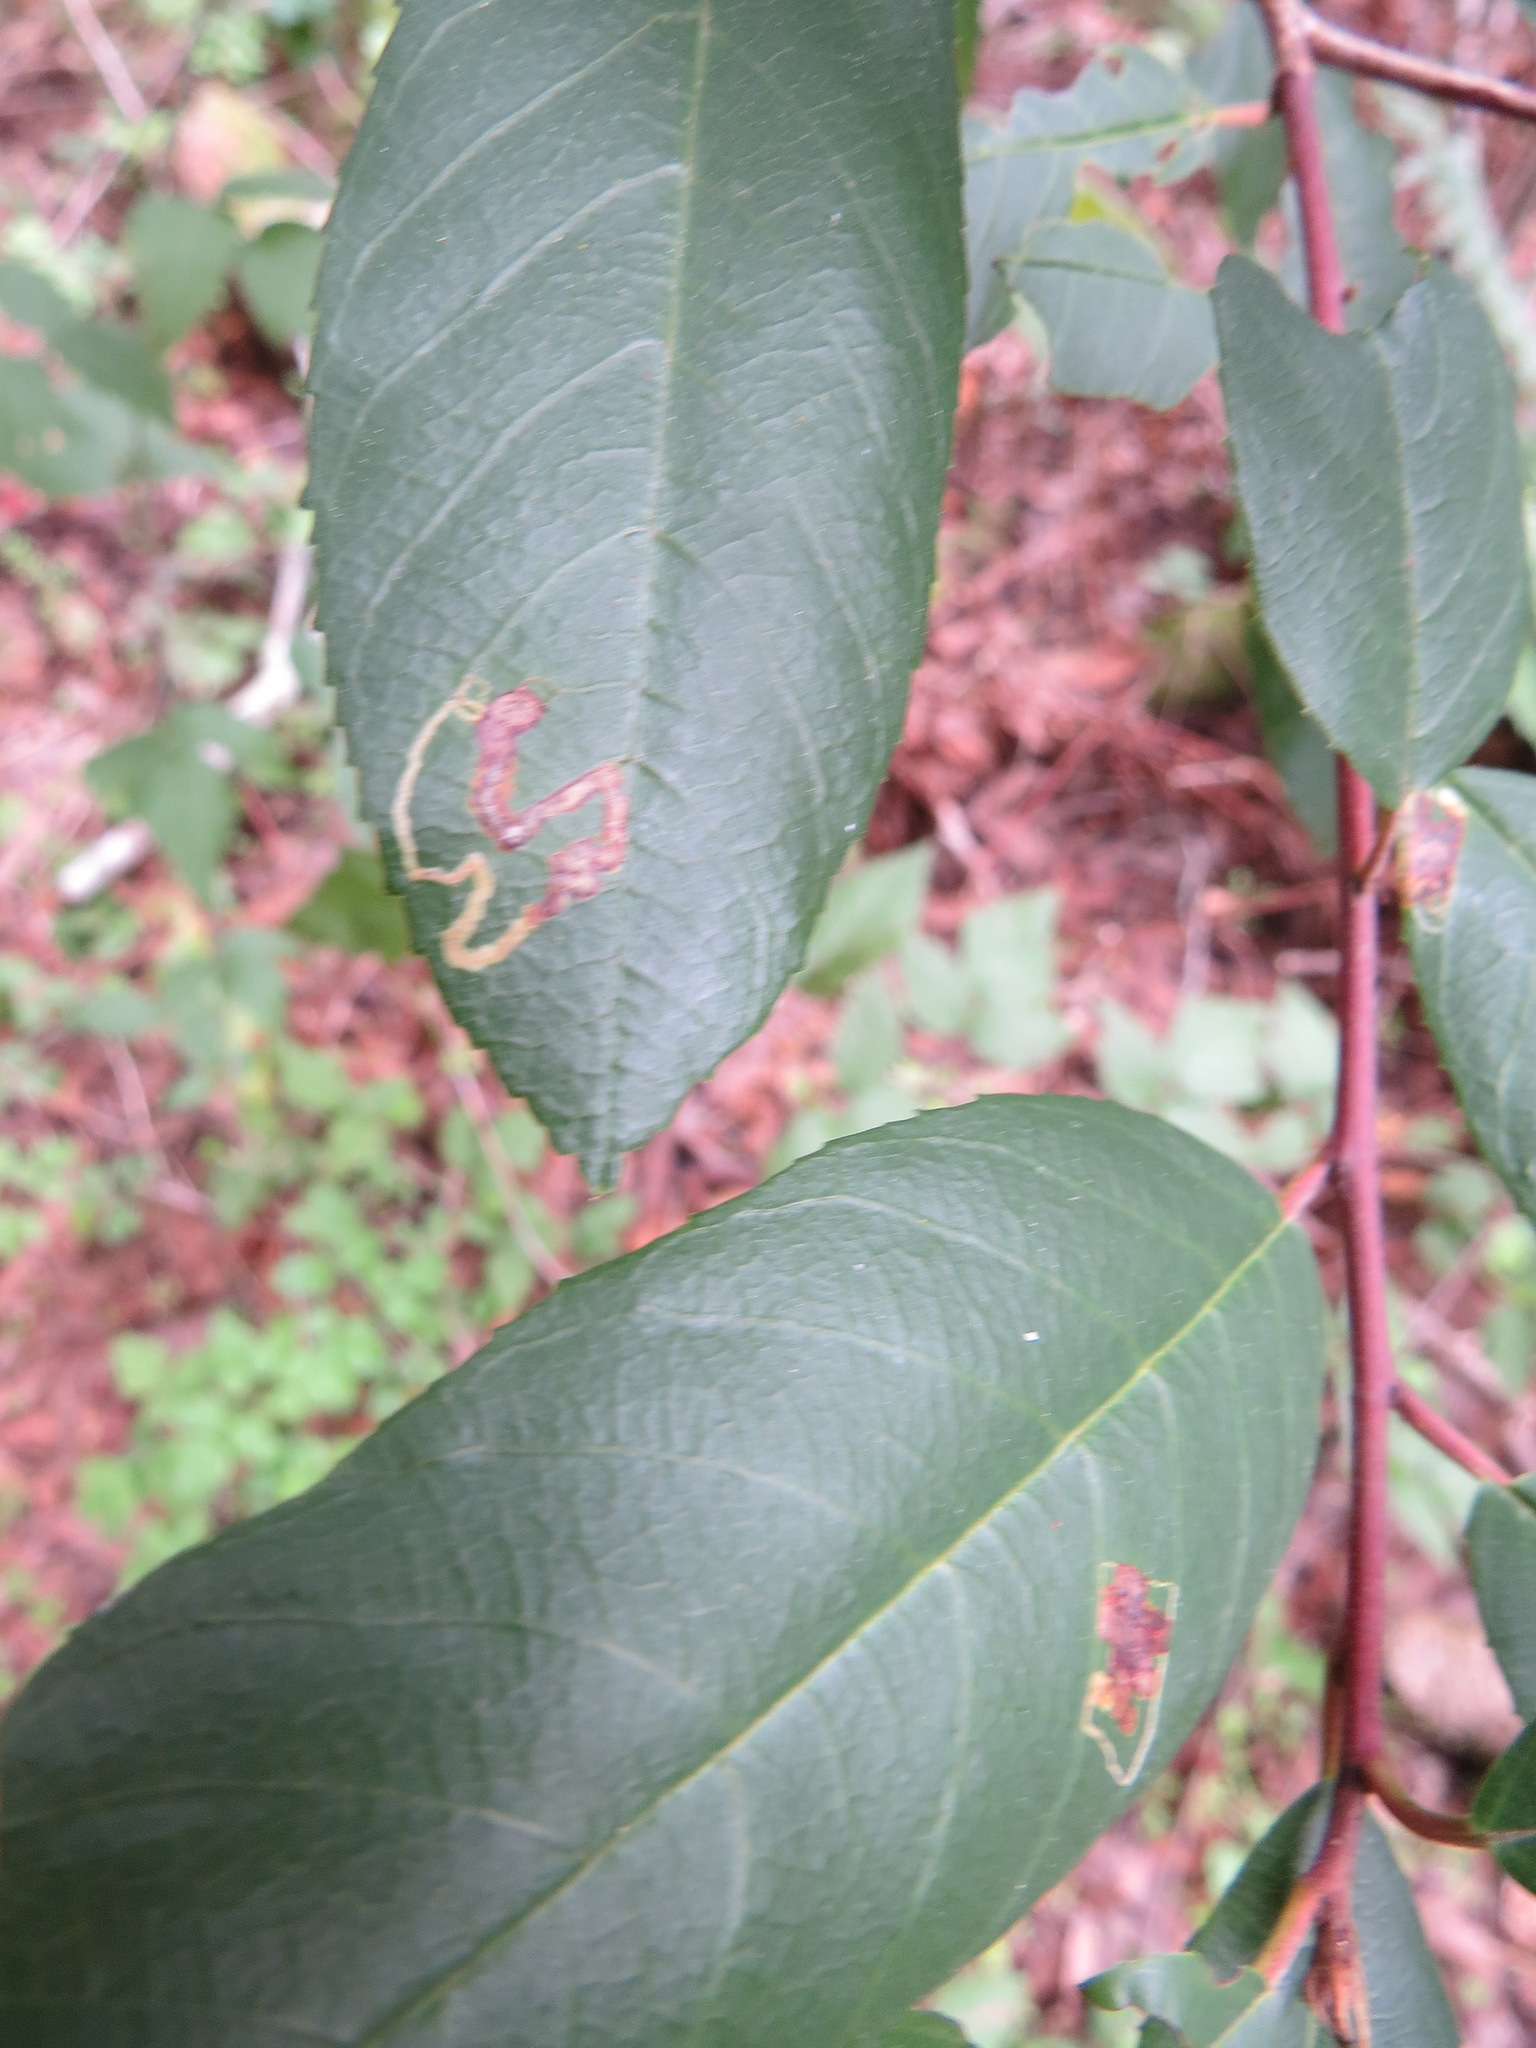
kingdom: Plantae
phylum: Tracheophyta
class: Magnoliopsida
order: Rosales
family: Rhamnaceae
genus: Frangula
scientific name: Frangula californica
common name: California buckthorn
